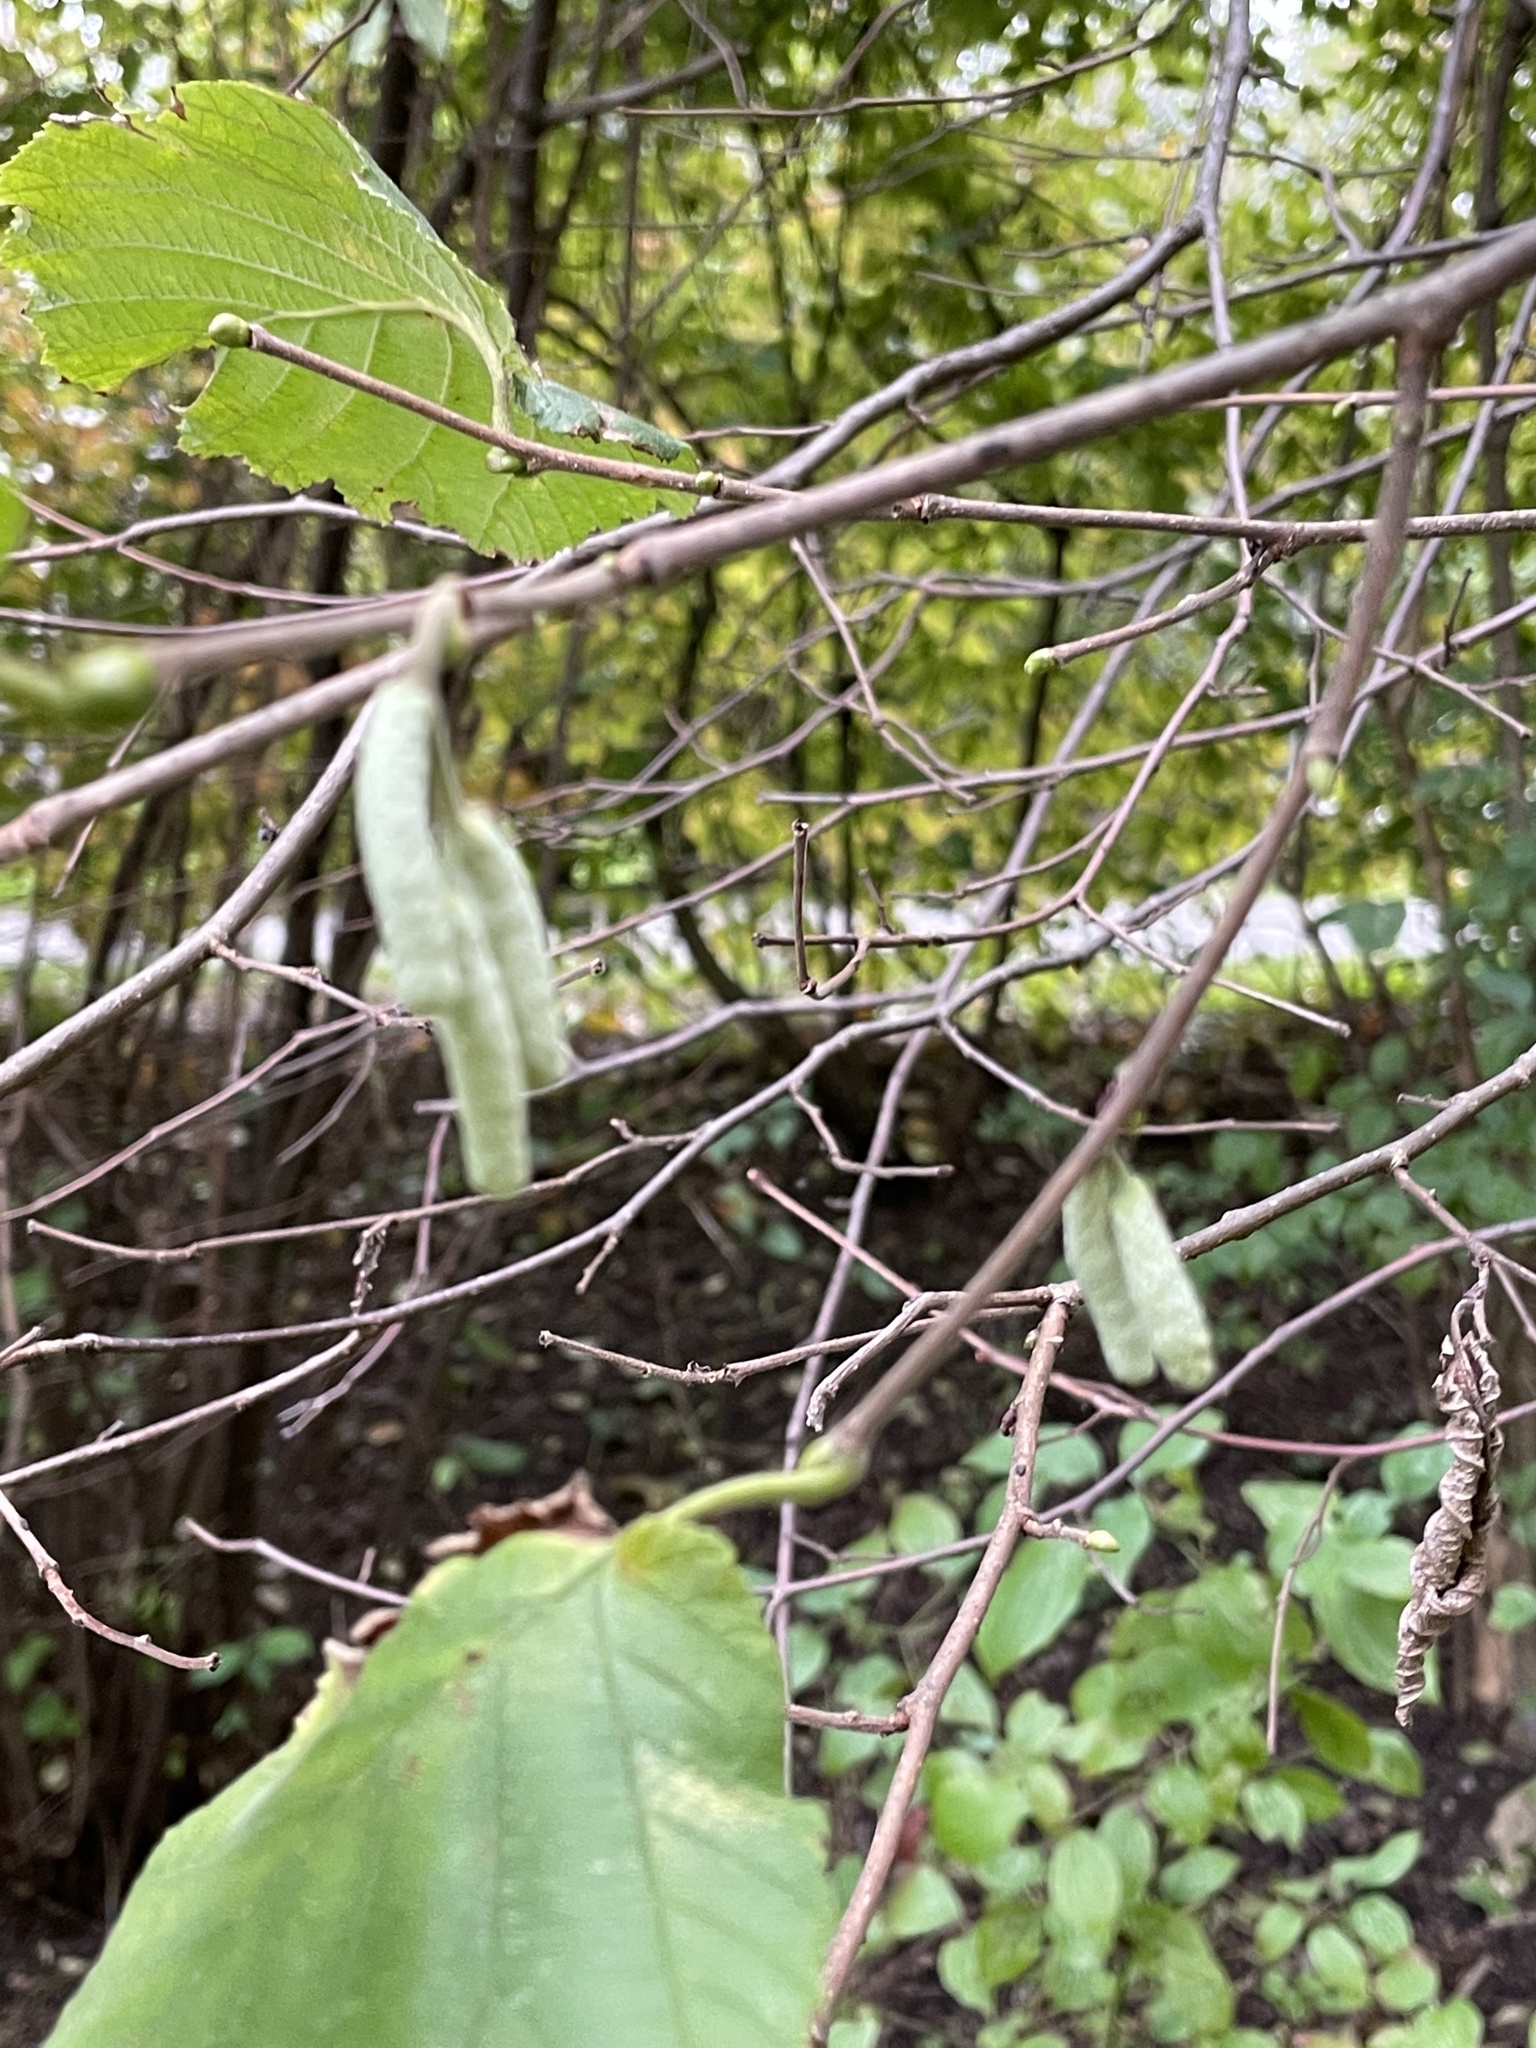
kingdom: Plantae
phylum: Tracheophyta
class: Magnoliopsida
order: Fagales
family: Betulaceae
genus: Corylus
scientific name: Corylus avellana
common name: European hazel
